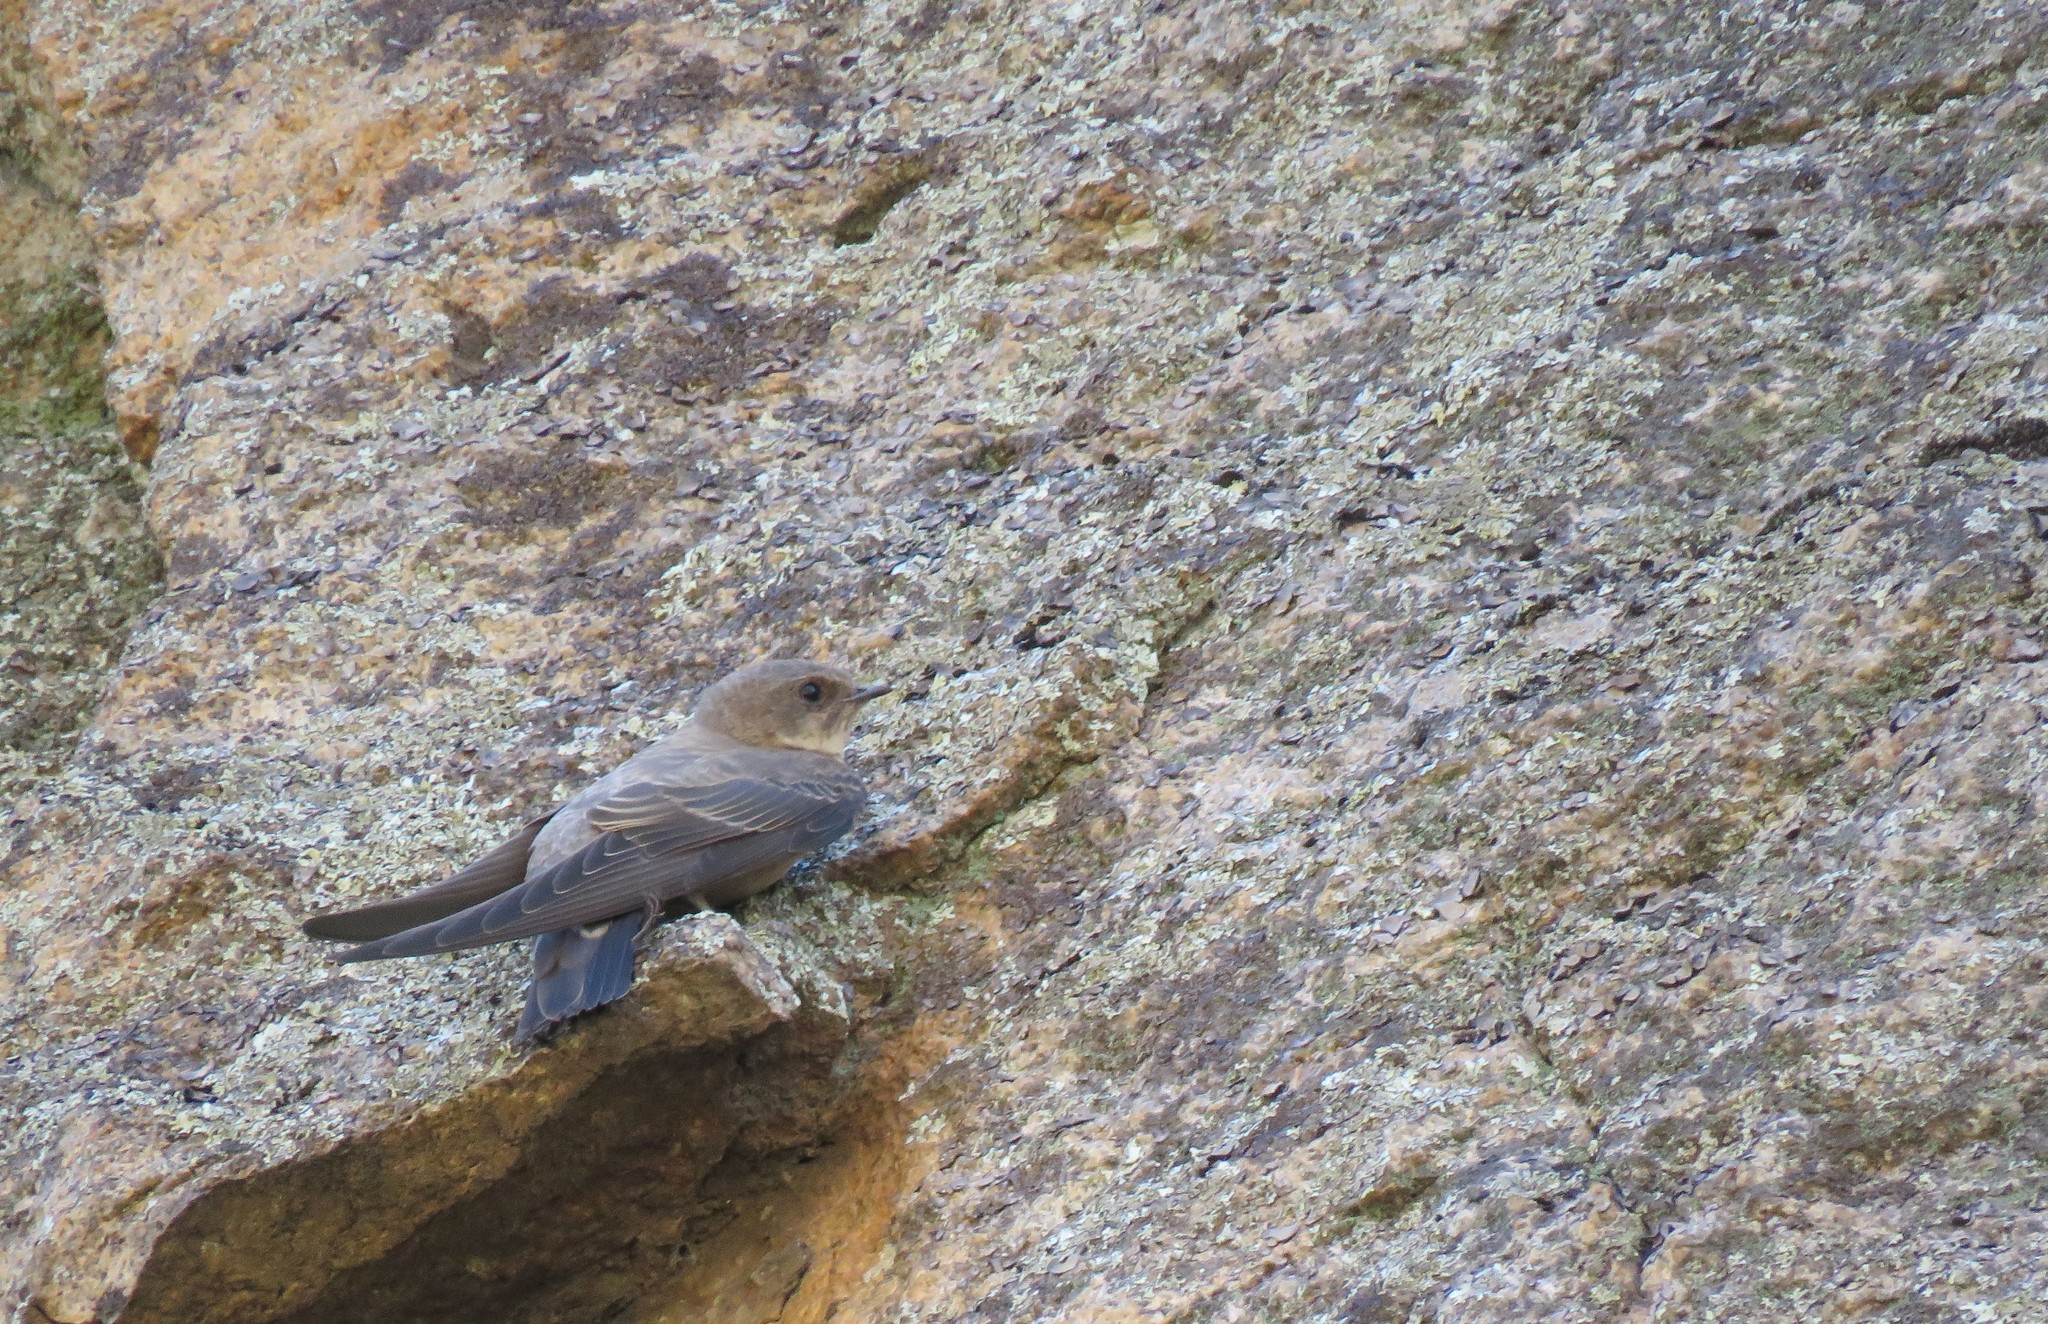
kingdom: Animalia
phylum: Chordata
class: Aves
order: Passeriformes
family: Hirundinidae
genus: Ptyonoprogne
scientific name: Ptyonoprogne rupestris
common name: Eurasian crag martin
